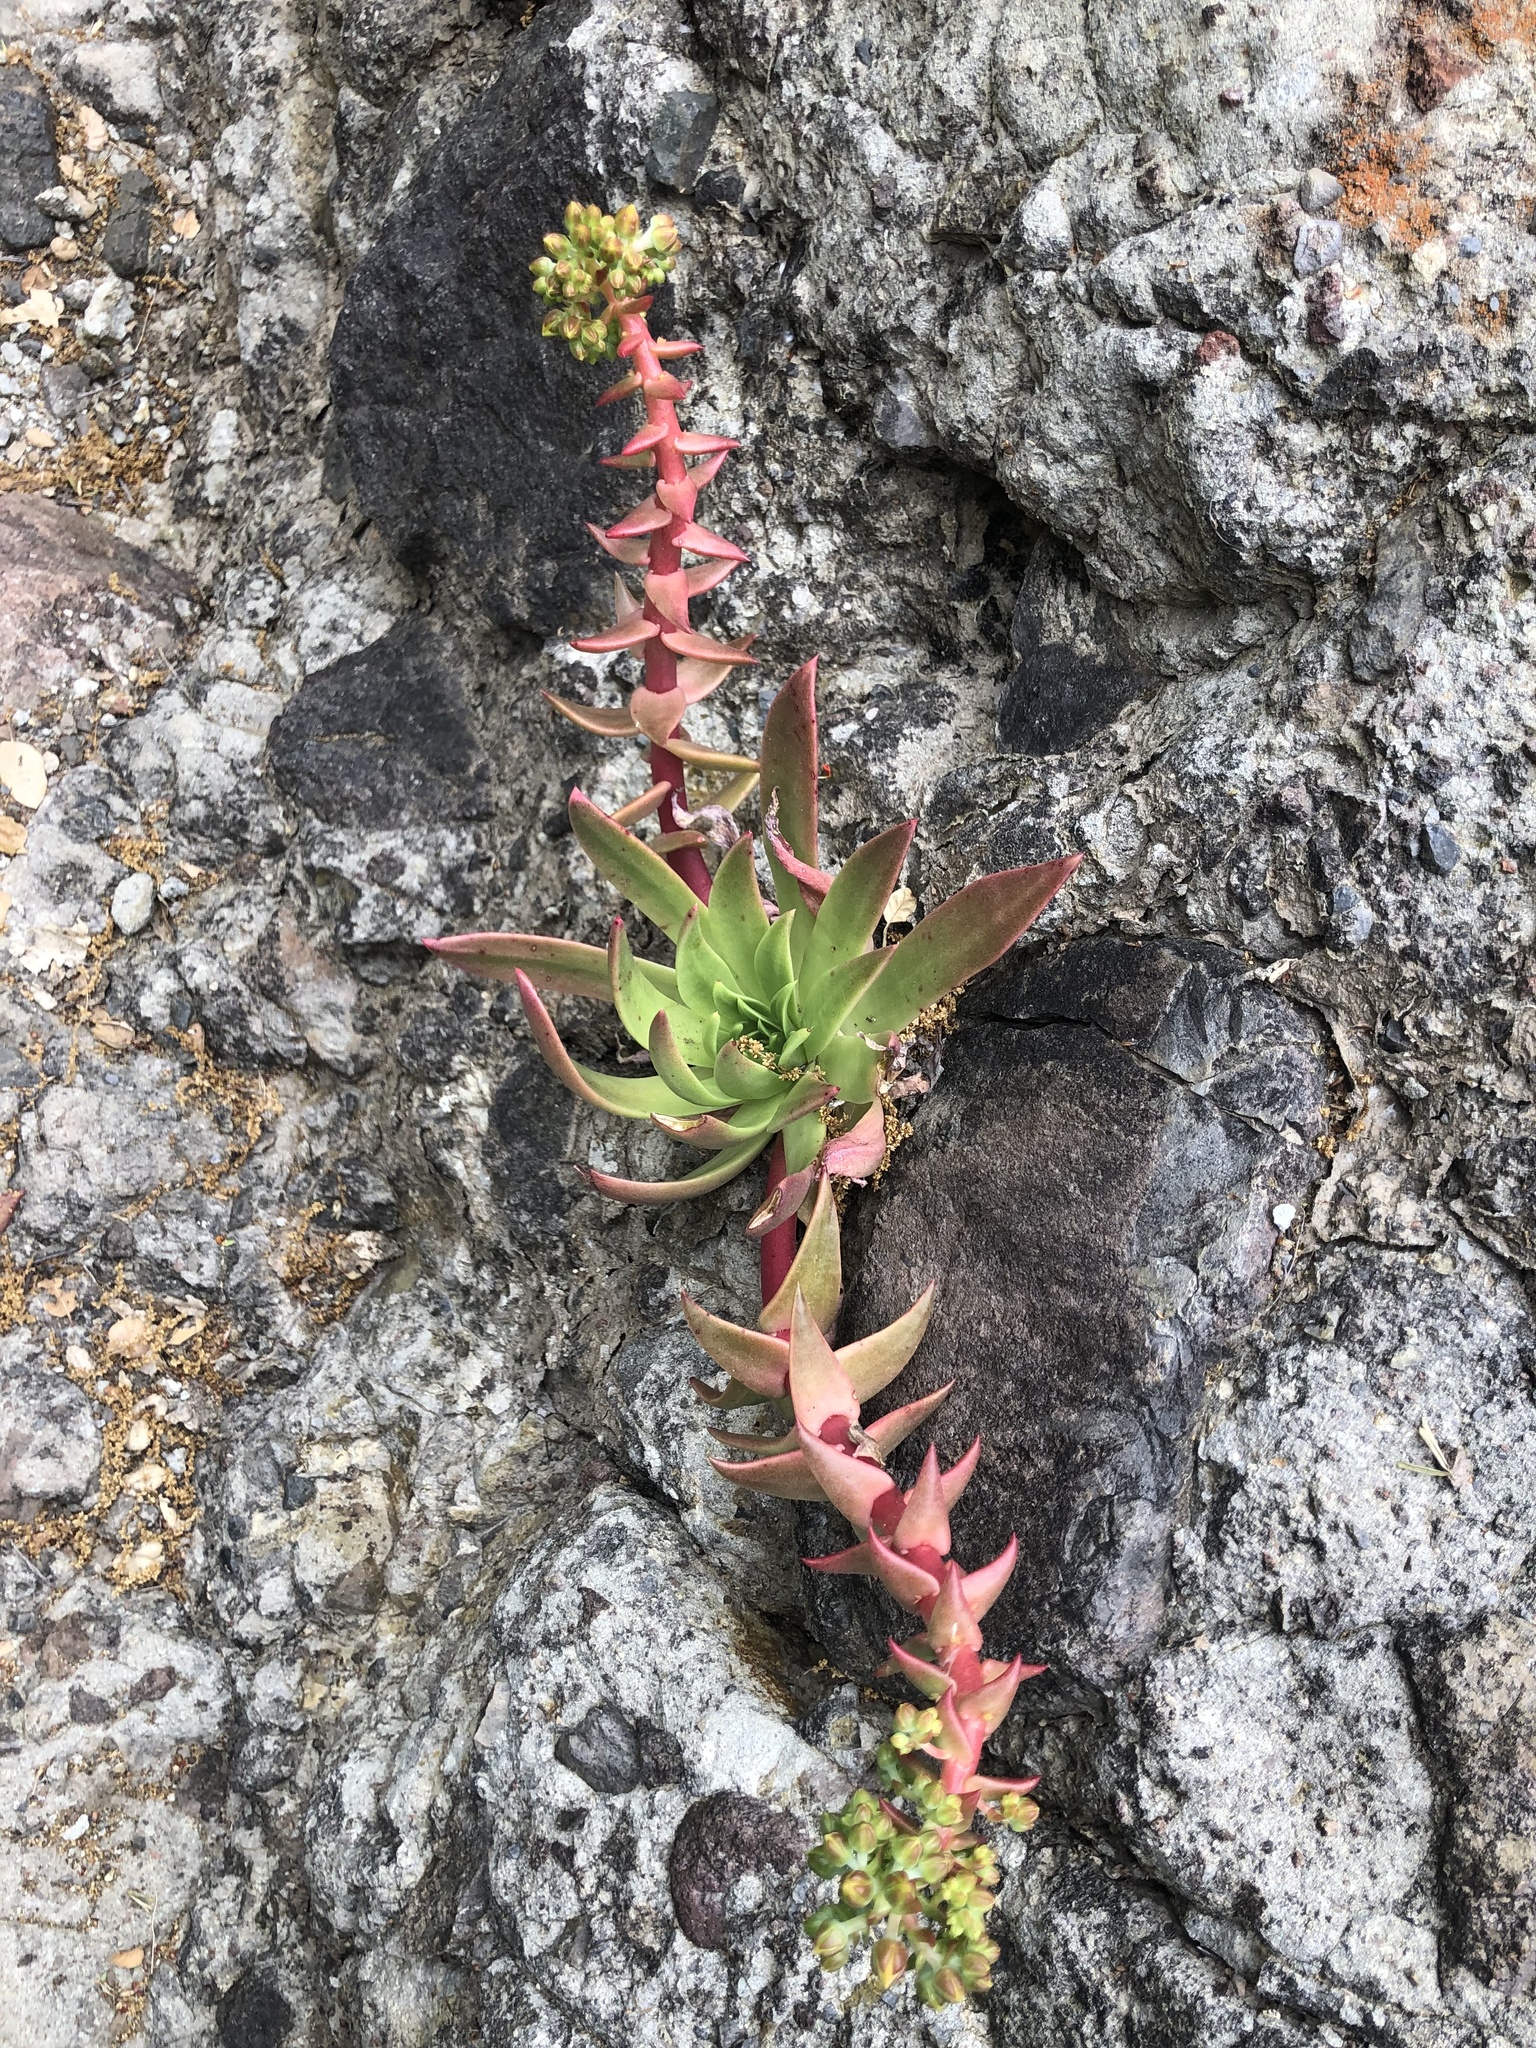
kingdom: Plantae
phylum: Tracheophyta
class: Magnoliopsida
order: Saxifragales
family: Crassulaceae
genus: Dudleya
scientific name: Dudleya candelabrum
